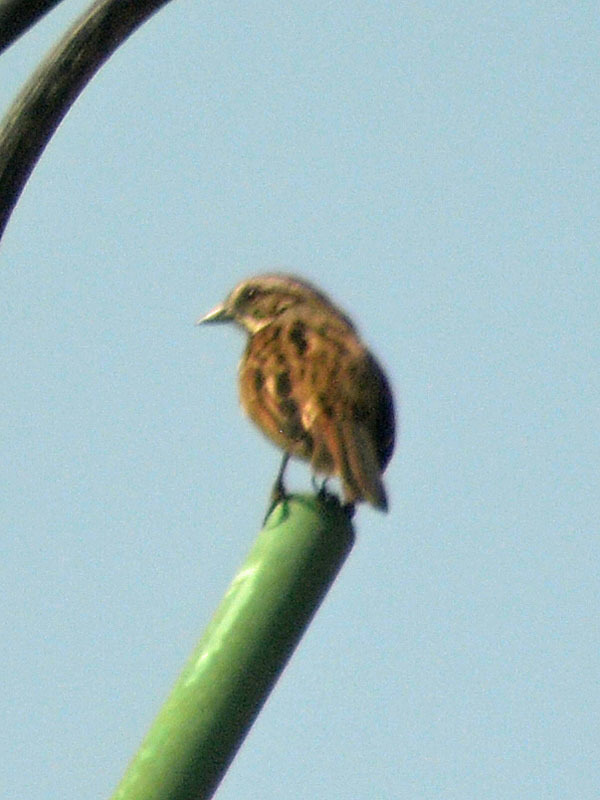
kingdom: Animalia
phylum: Chordata
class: Aves
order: Passeriformes
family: Passerellidae
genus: Melospiza
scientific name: Melospiza melodia
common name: Song sparrow
